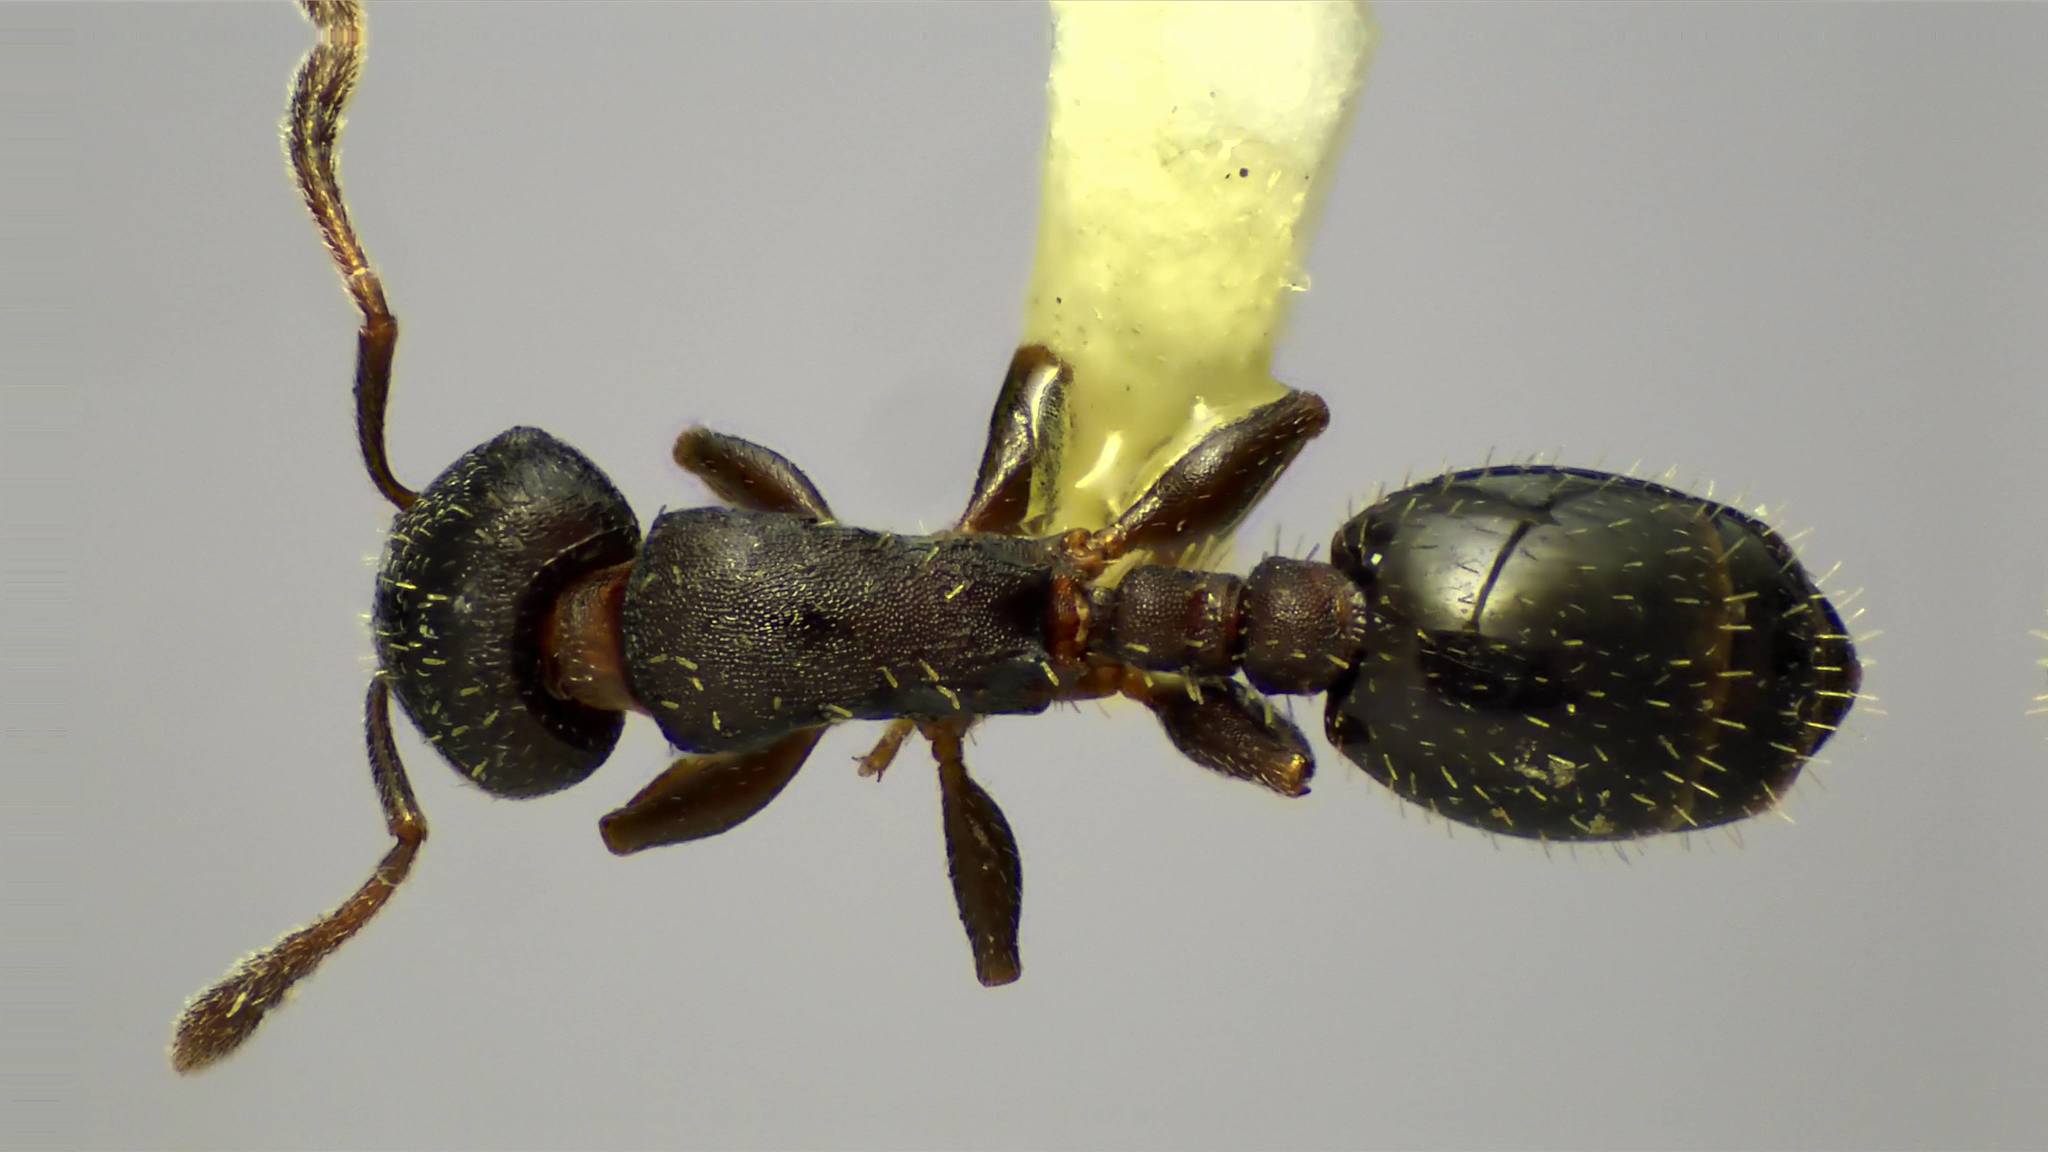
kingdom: Animalia
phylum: Arthropoda
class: Insecta
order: Hymenoptera
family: Formicidae
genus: Leptothorax
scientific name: Leptothorax schaumii
